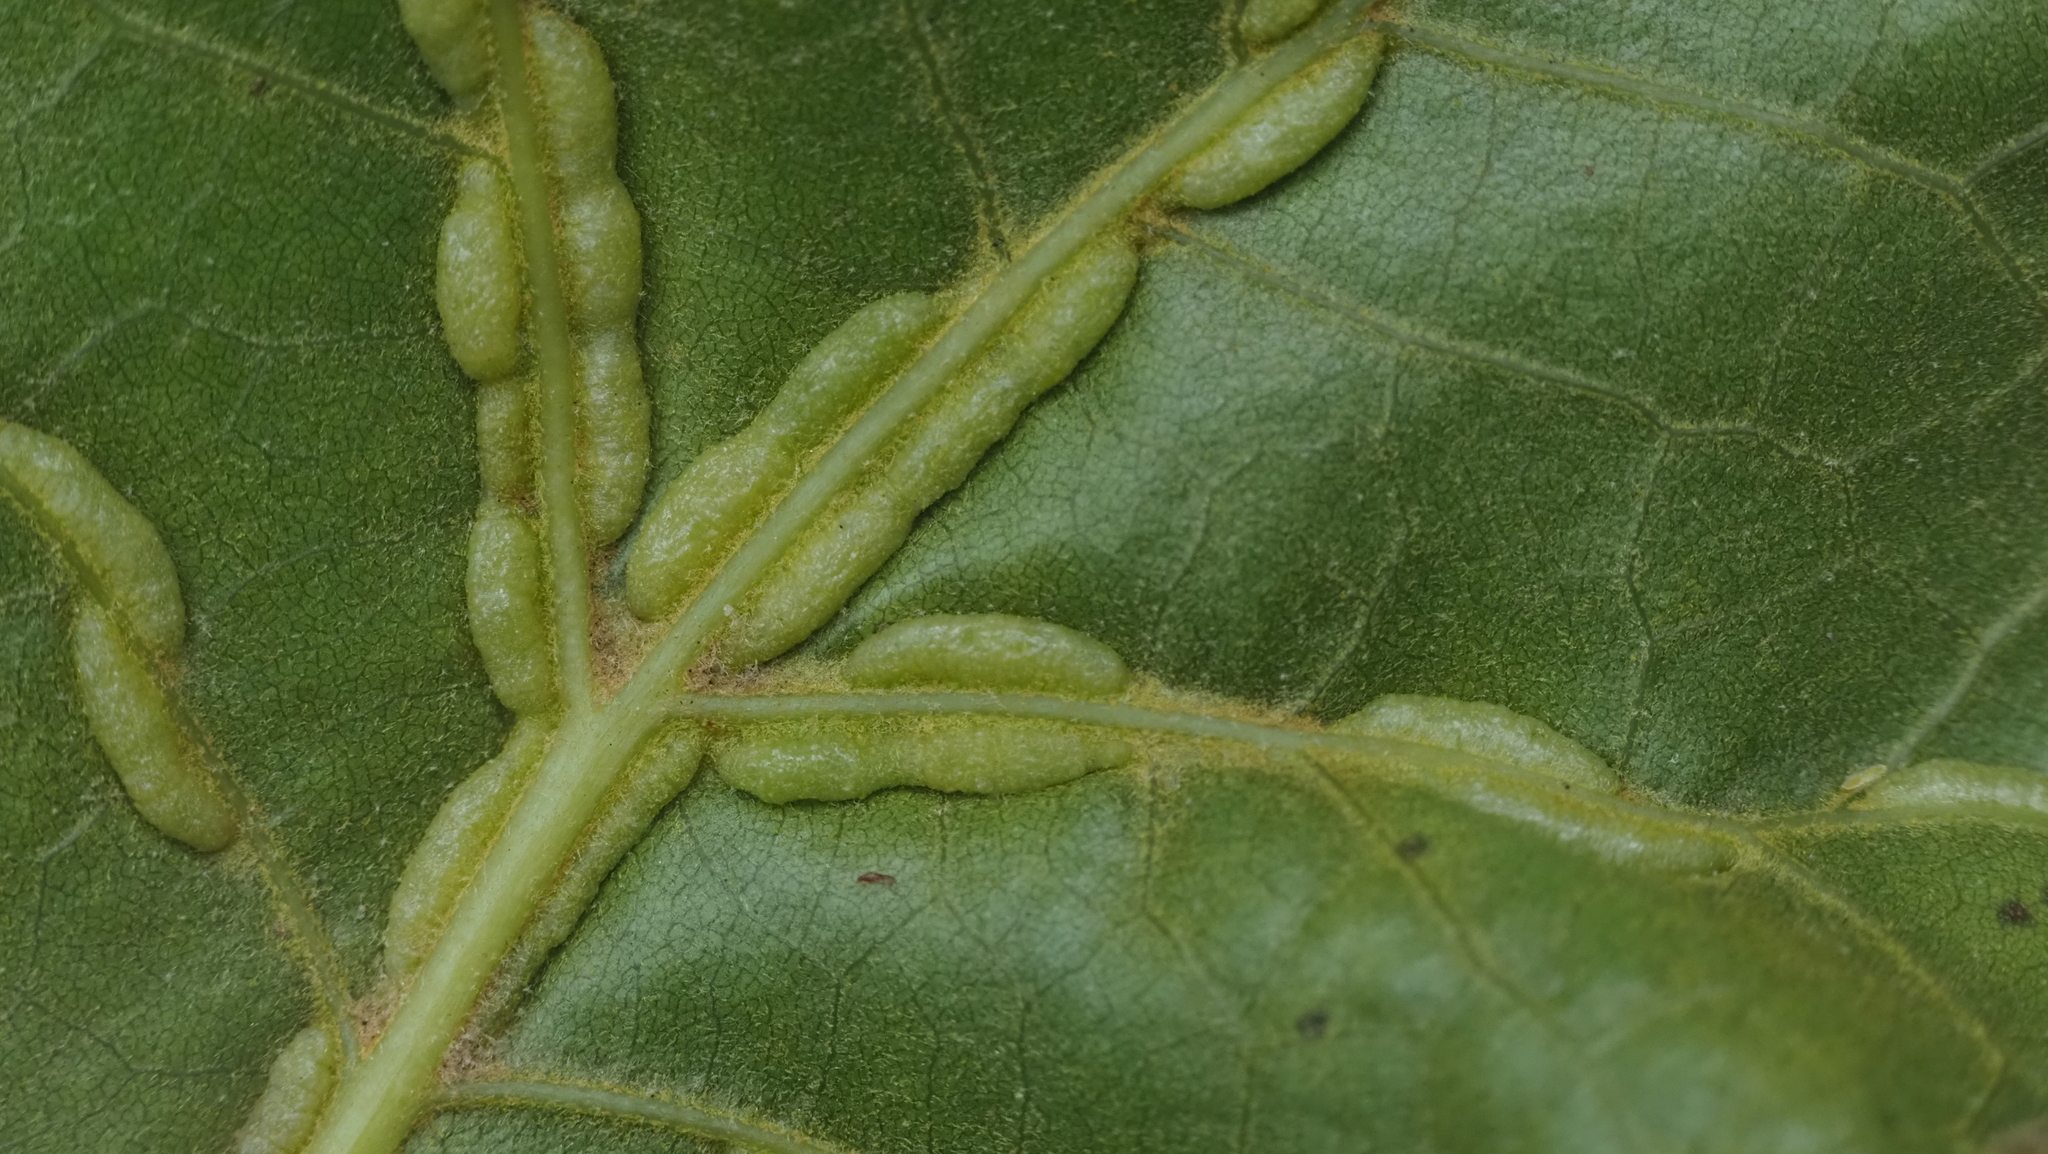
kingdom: Animalia
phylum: Arthropoda
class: Insecta
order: Diptera
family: Cecidomyiidae
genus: Macrodiplosis
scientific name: Macrodiplosis q-orucum
